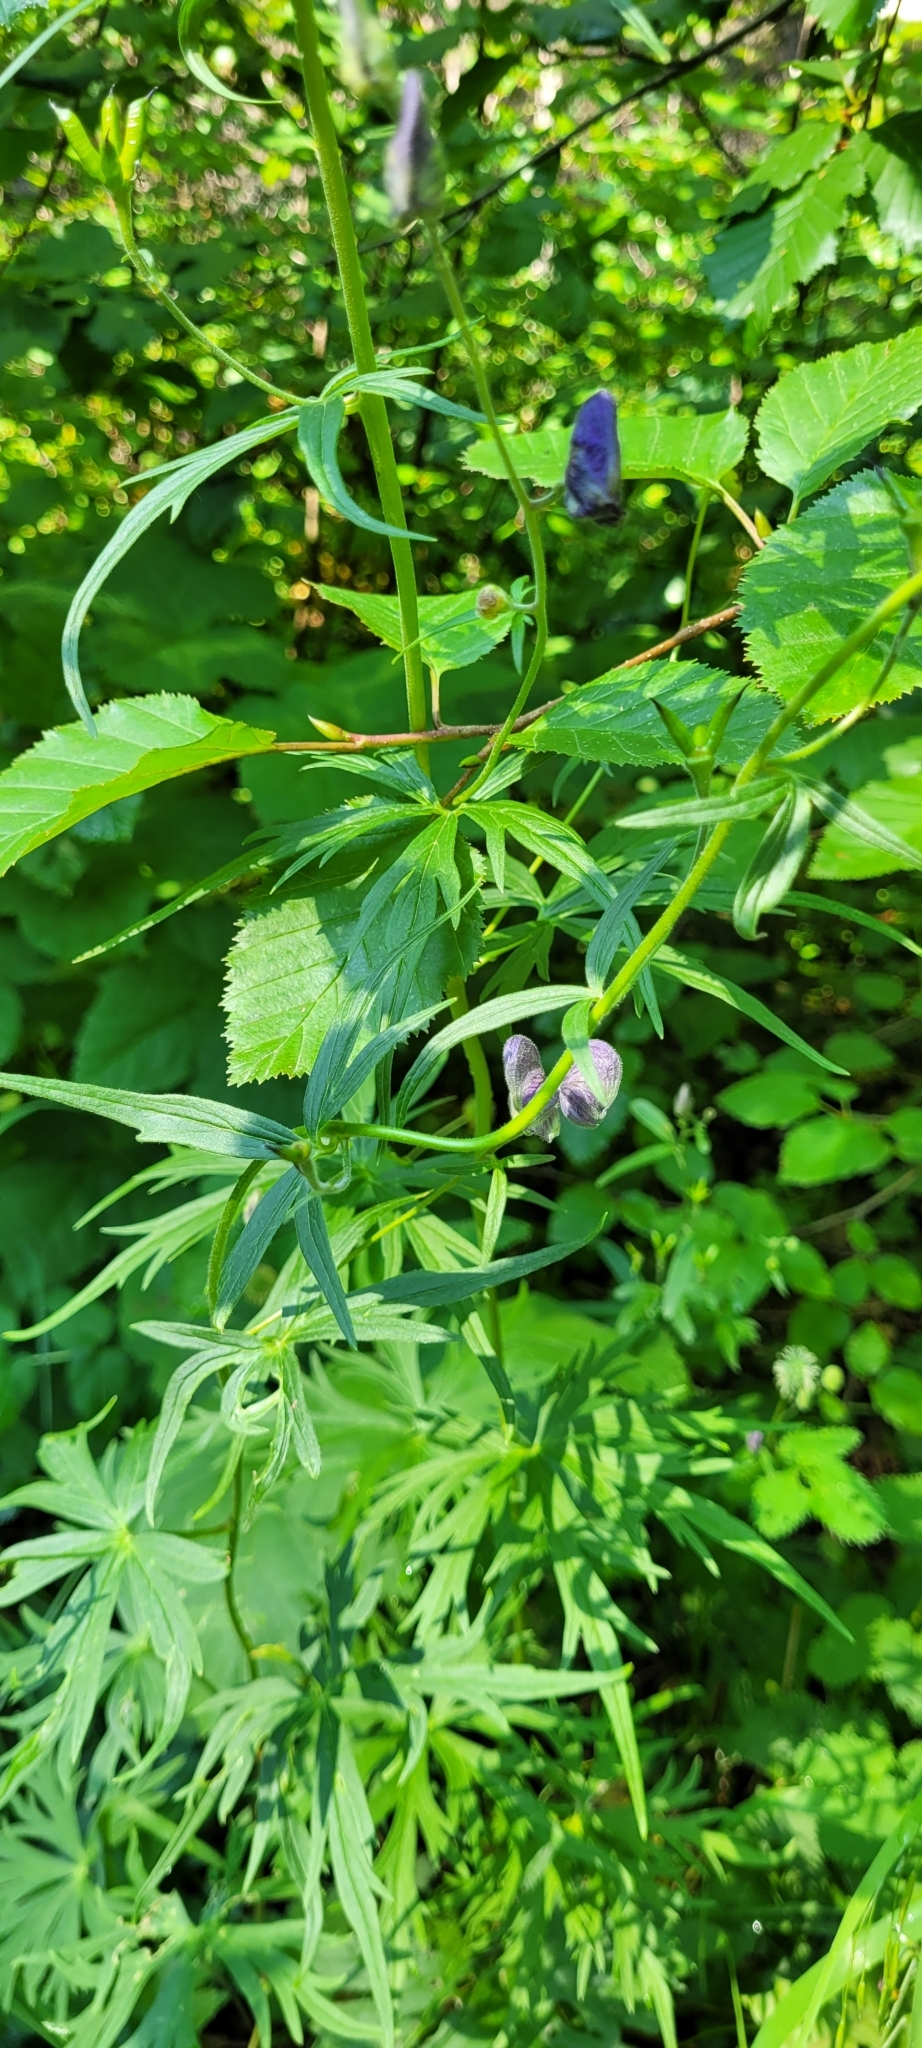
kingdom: Plantae
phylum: Tracheophyta
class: Magnoliopsida
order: Ranunculales
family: Ranunculaceae
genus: Aconitum
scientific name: Aconitum delphiniifolium
